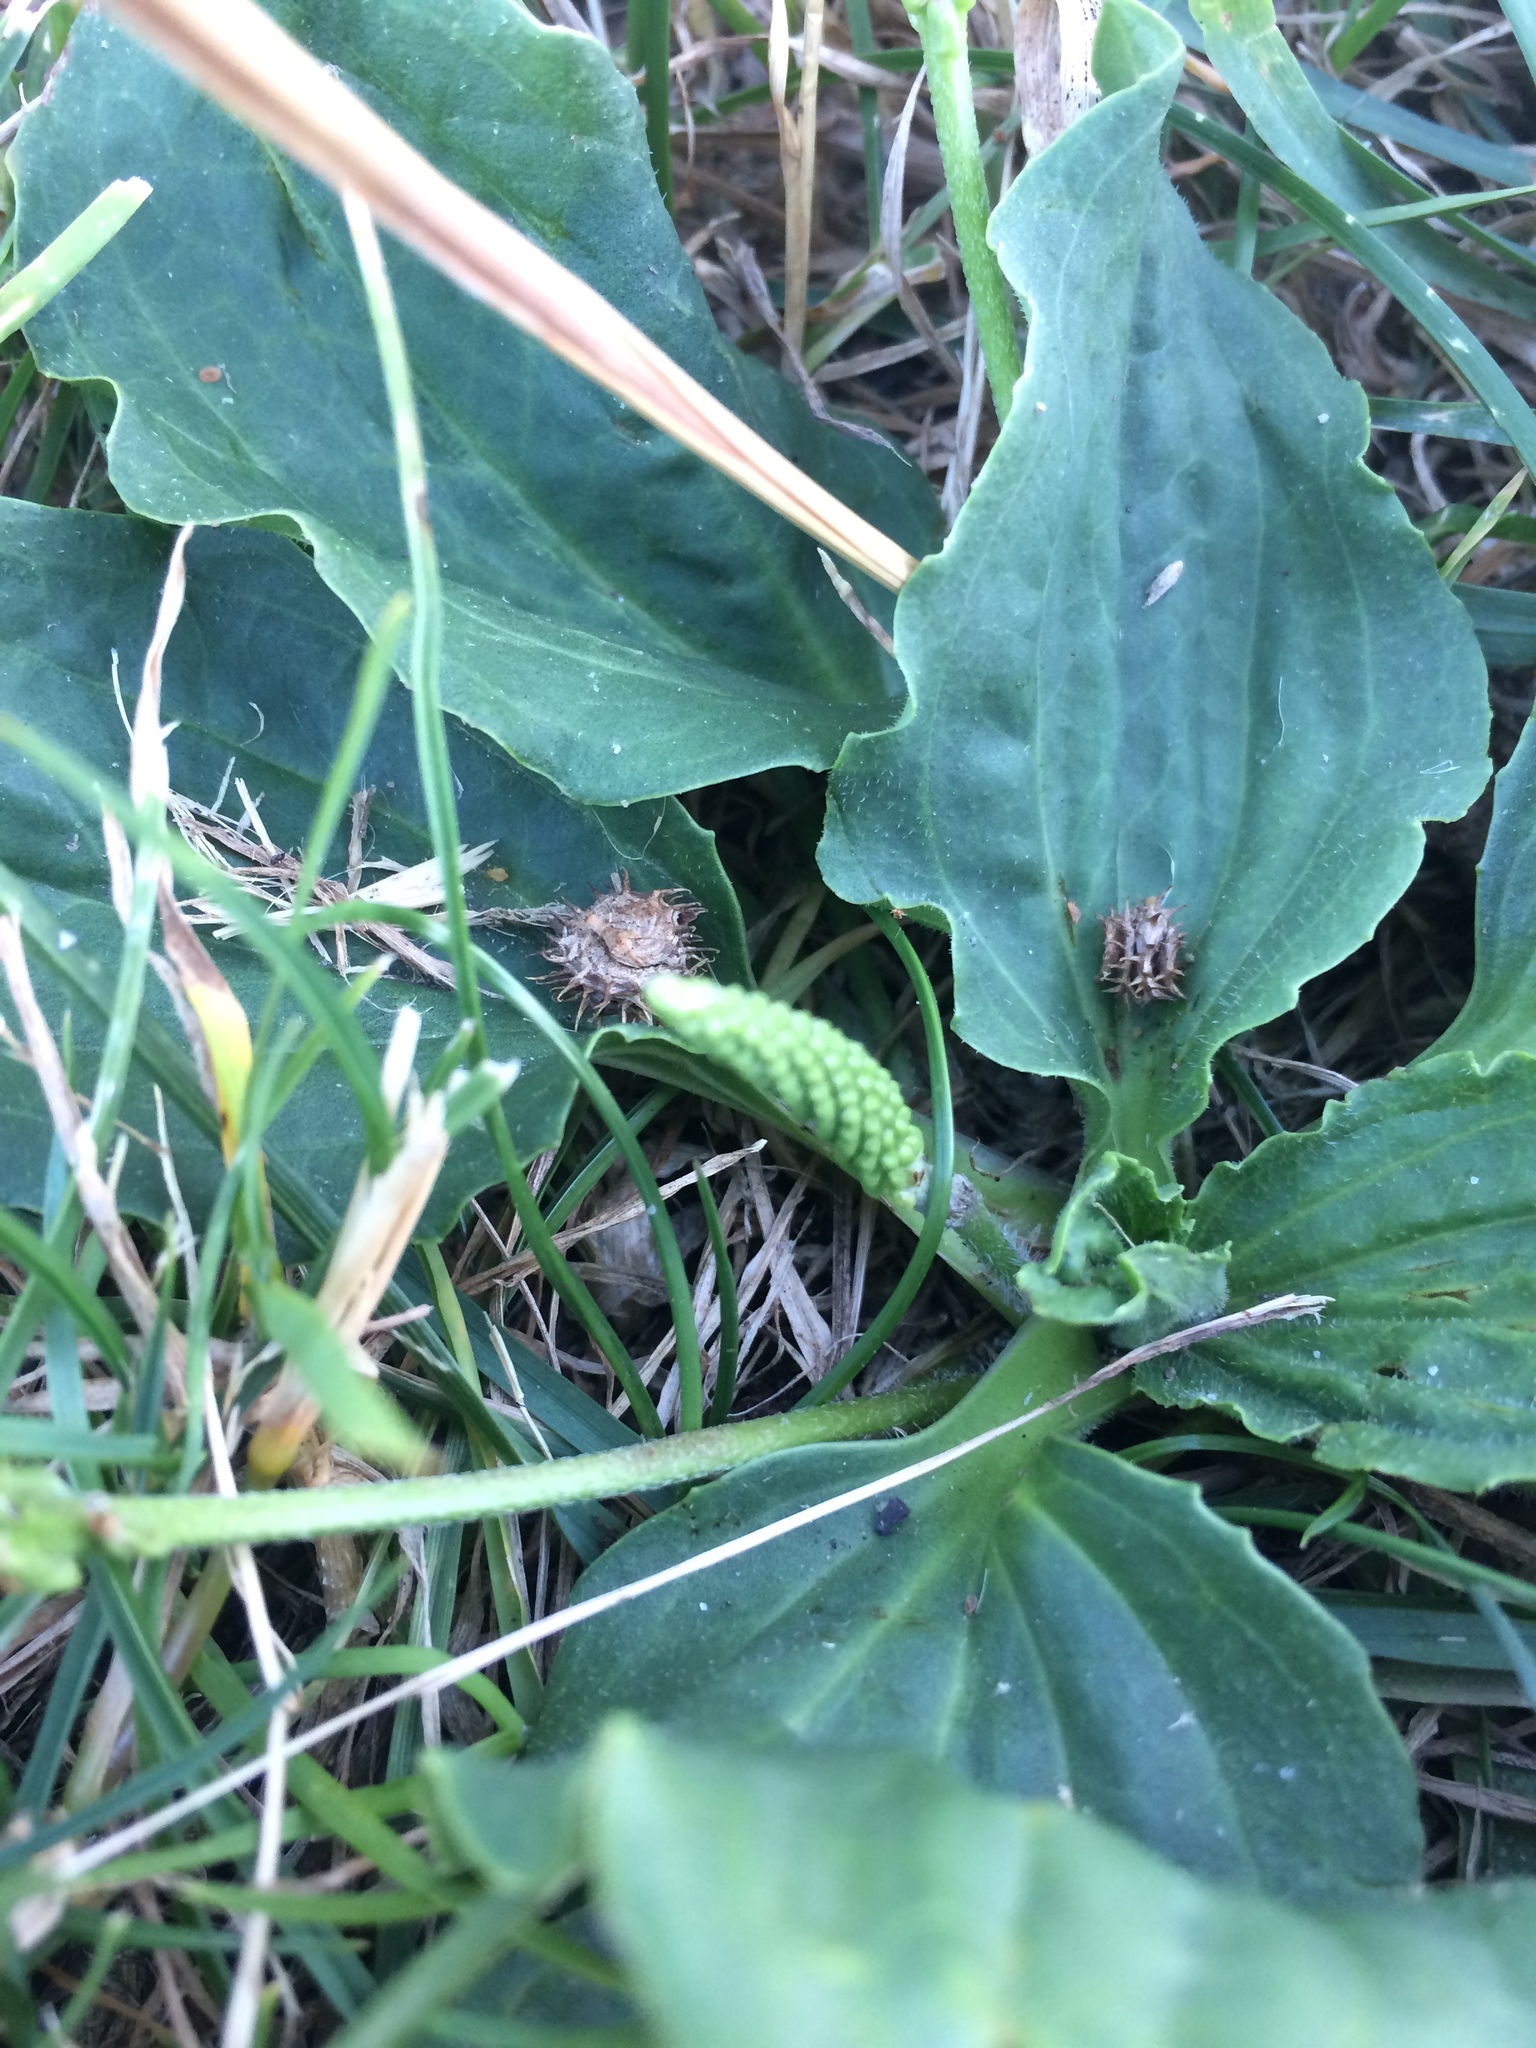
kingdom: Plantae
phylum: Tracheophyta
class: Magnoliopsida
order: Lamiales
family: Plantaginaceae
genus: Plantago
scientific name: Plantago major
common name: Common plantain
